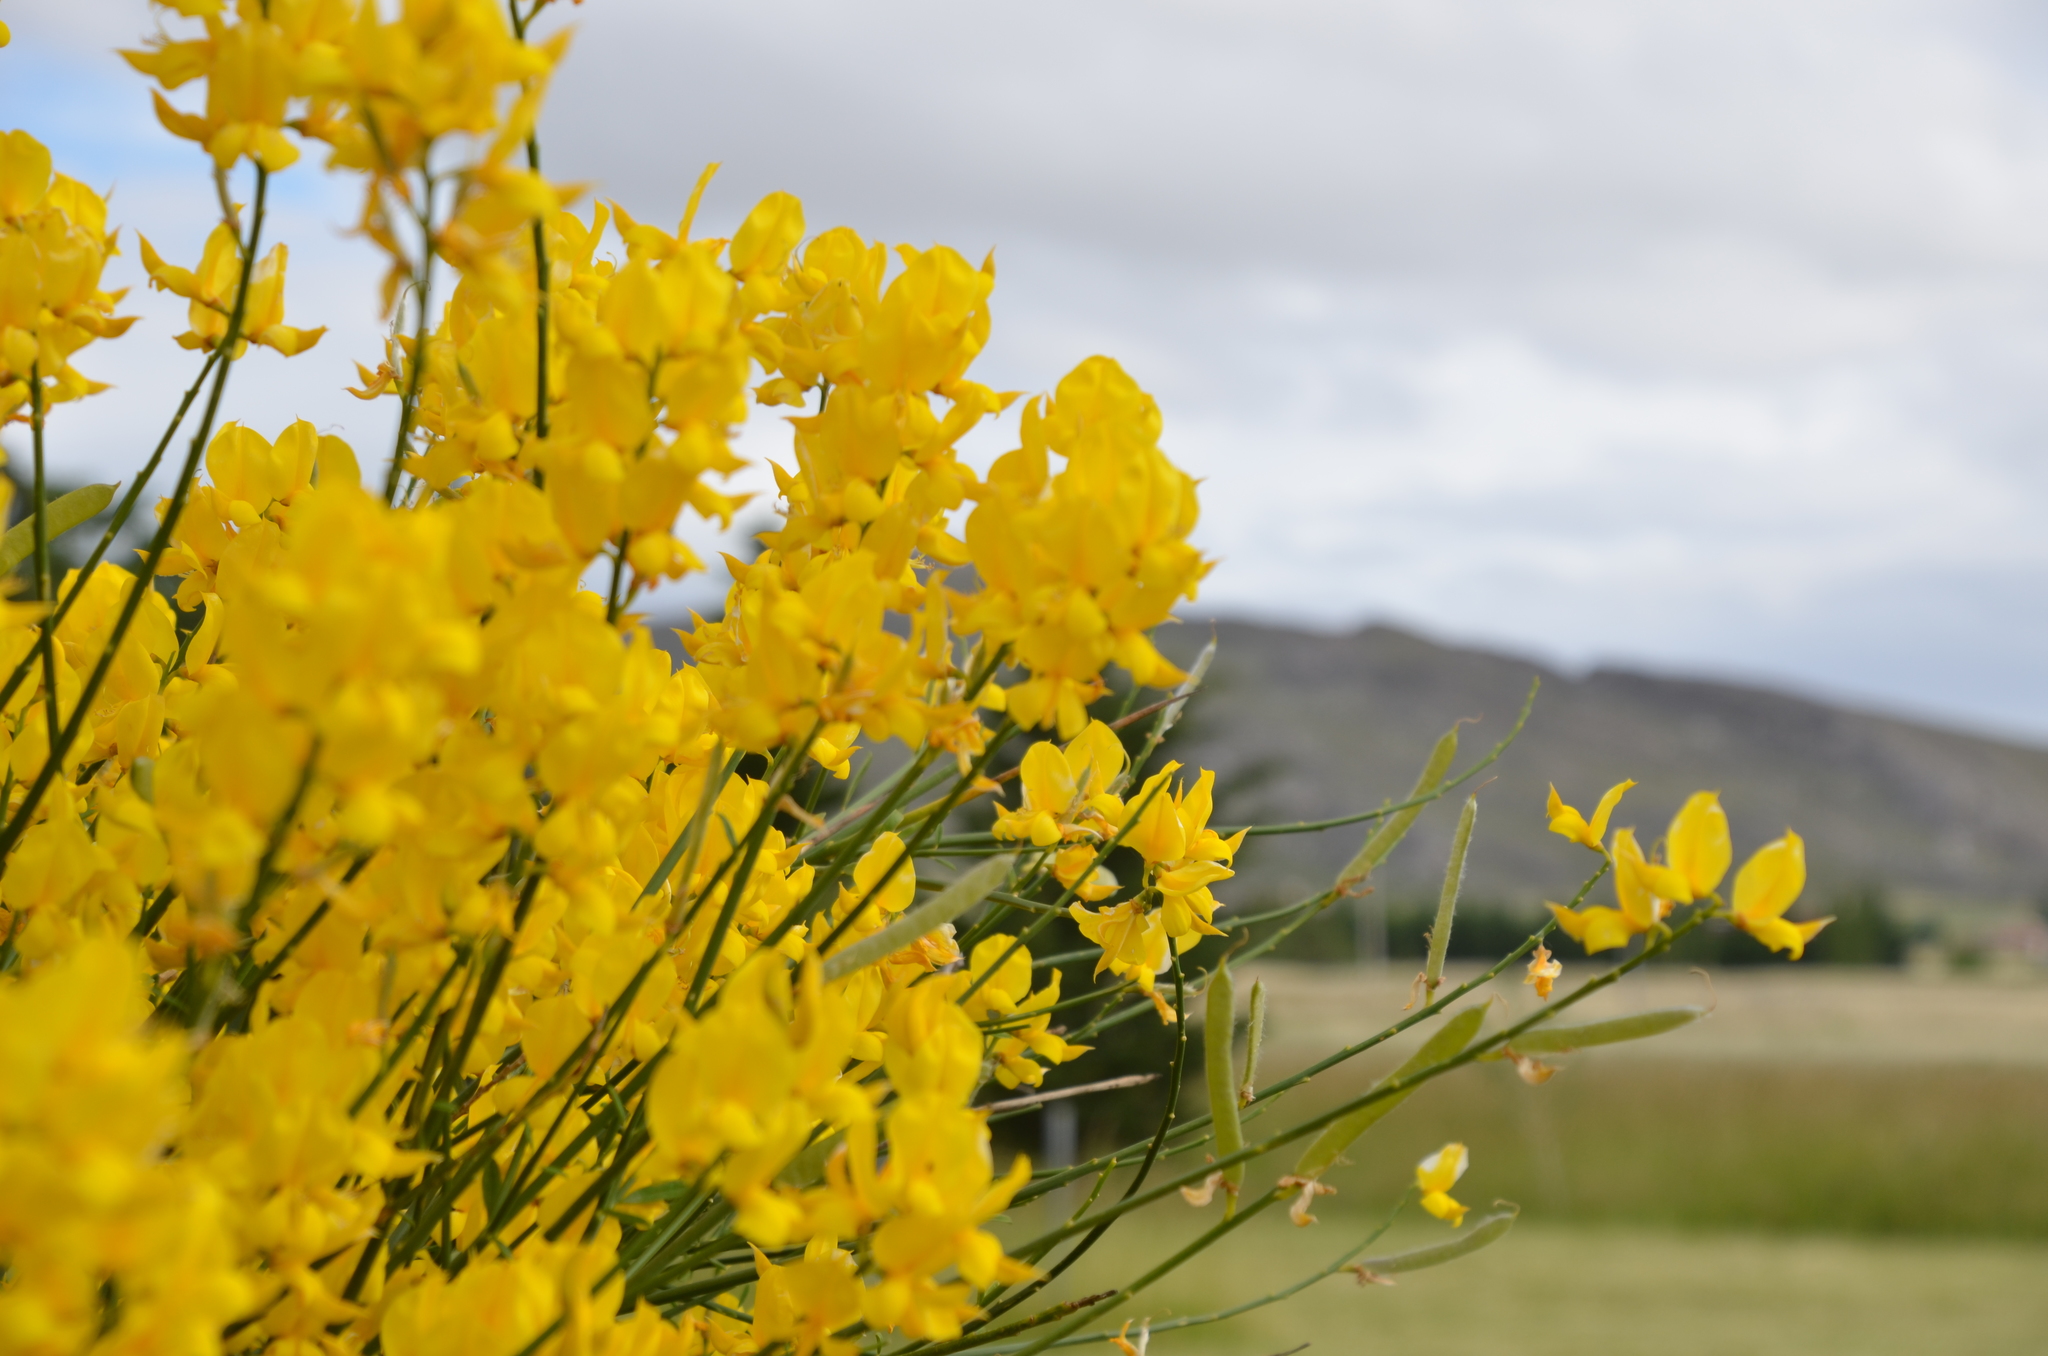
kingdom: Plantae
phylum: Tracheophyta
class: Magnoliopsida
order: Fabales
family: Fabaceae
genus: Spartium
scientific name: Spartium junceum
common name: Spanish broom
